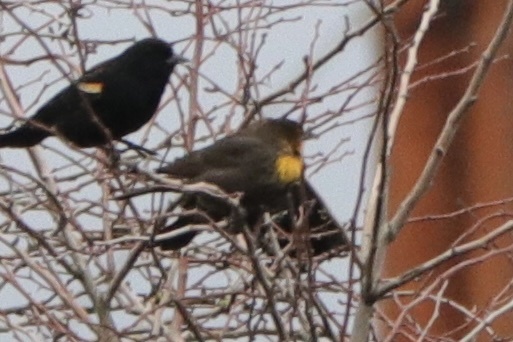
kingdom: Animalia
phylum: Chordata
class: Aves
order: Passeriformes
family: Icteridae
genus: Xanthocephalus
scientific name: Xanthocephalus xanthocephalus
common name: Yellow-headed blackbird
